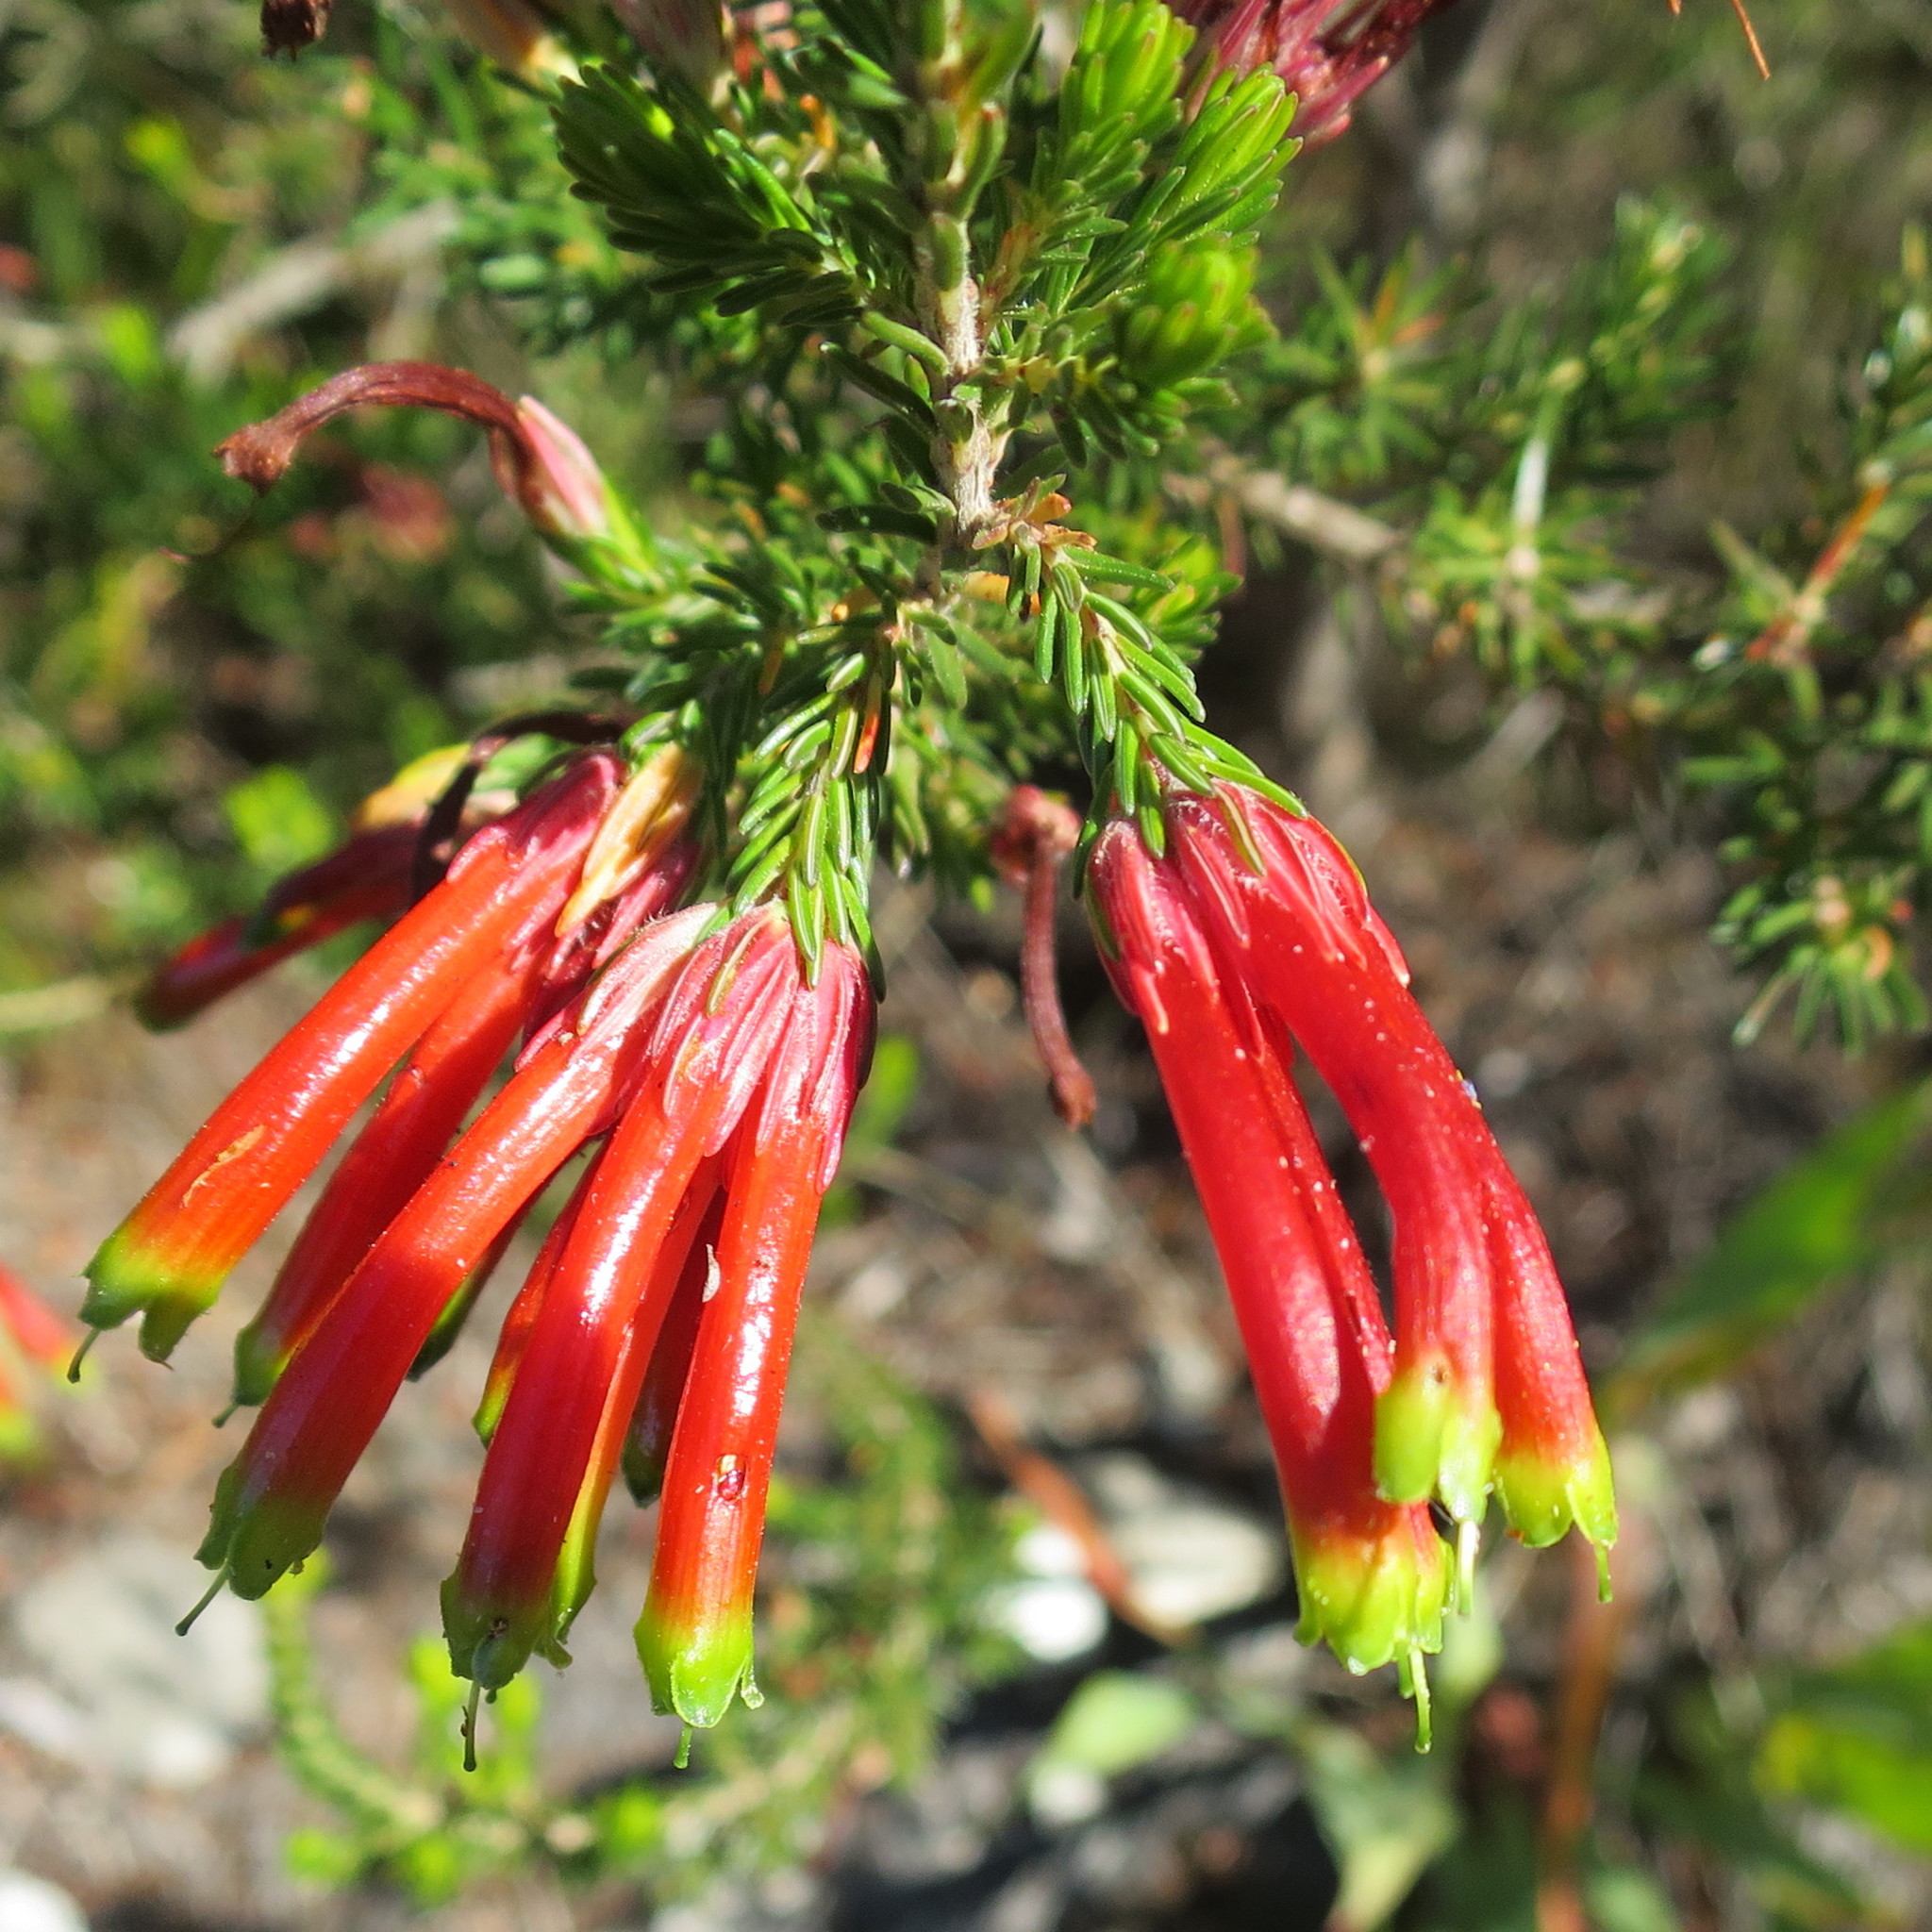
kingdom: Plantae
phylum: Tracheophyta
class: Magnoliopsida
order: Ericales
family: Ericaceae
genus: Erica
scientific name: Erica unicolor
